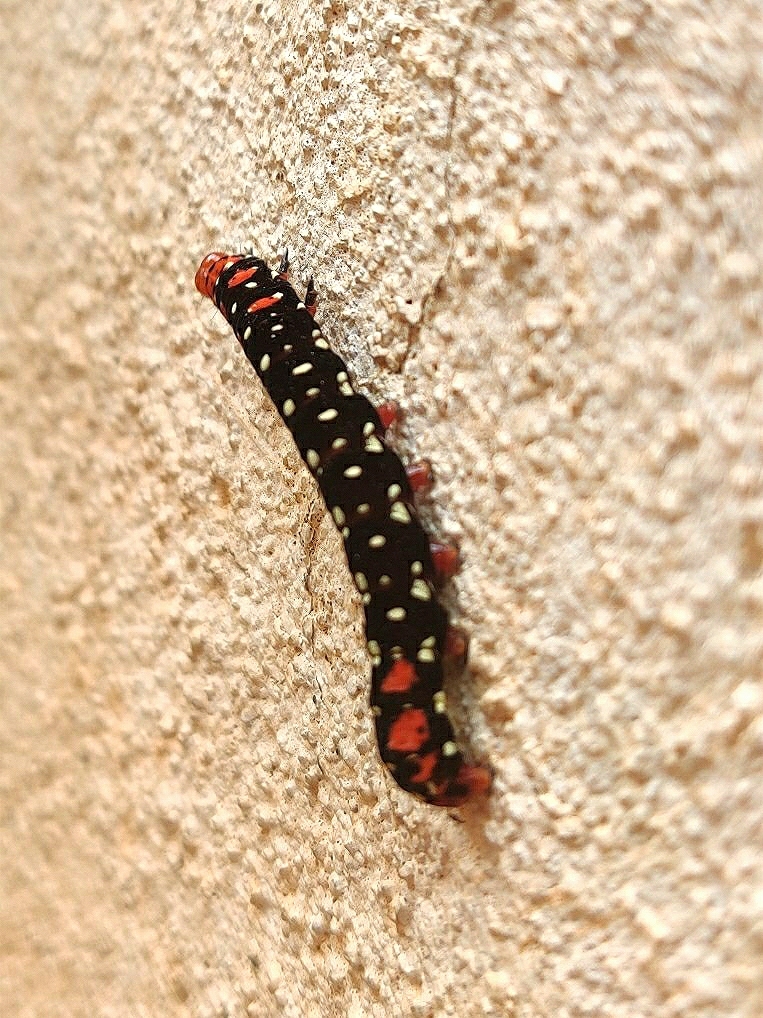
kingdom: Animalia
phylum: Arthropoda
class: Insecta
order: Lepidoptera
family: Noctuidae
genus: Polytela
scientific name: Polytela gloriosae
